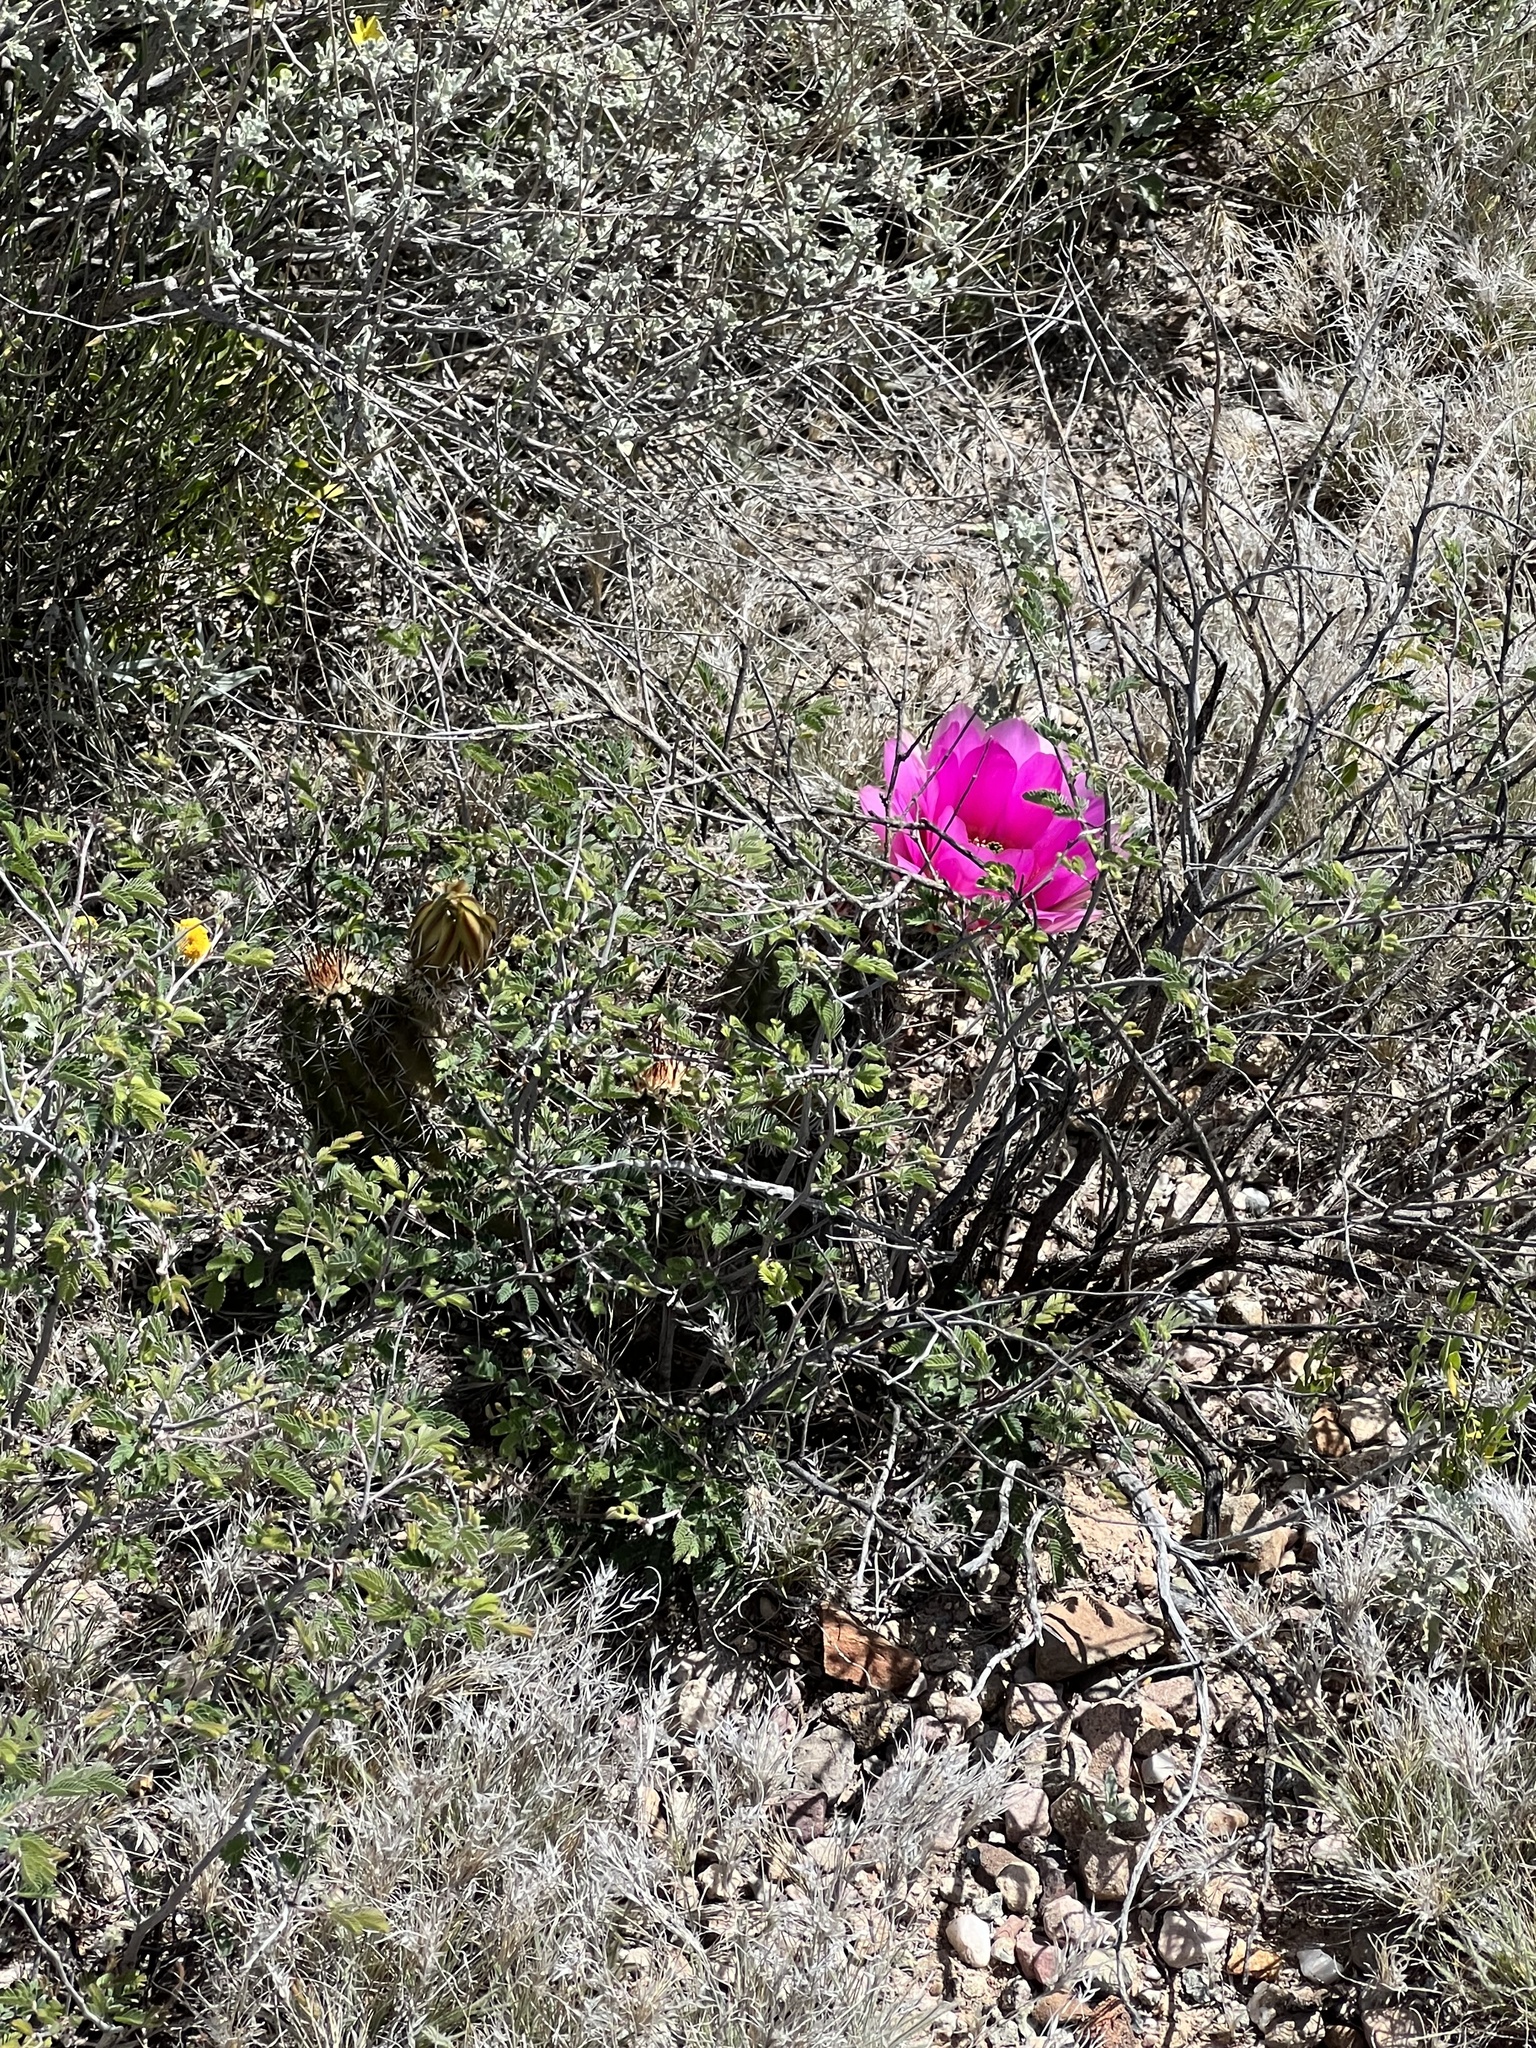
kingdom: Plantae
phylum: Tracheophyta
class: Magnoliopsida
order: Caryophyllales
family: Cactaceae
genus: Echinocereus
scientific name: Echinocereus fasciculatus
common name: Bundle hedgehog
